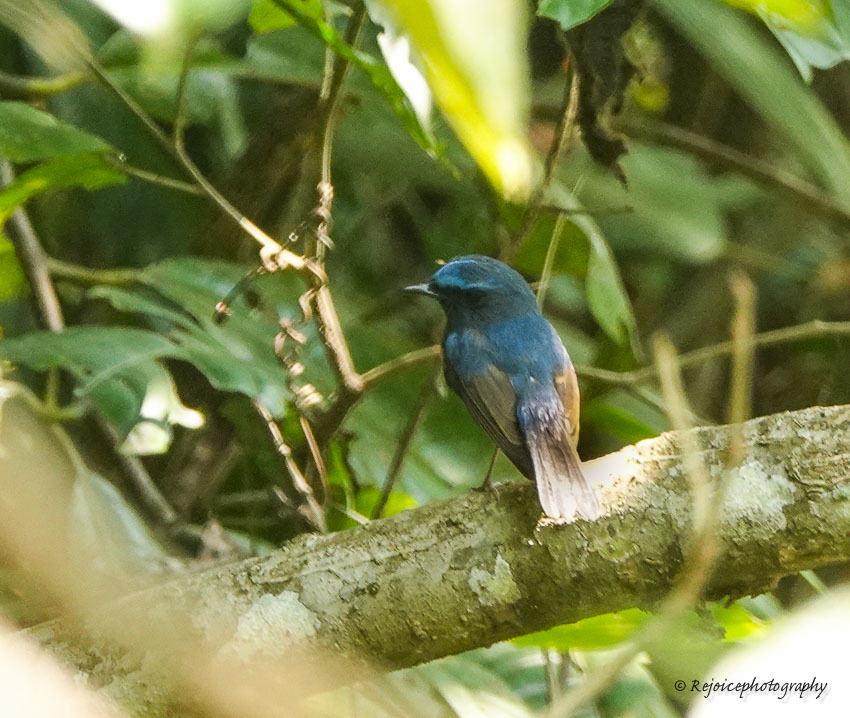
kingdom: Animalia
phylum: Chordata
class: Aves
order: Passeriformes
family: Muscicapidae
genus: Ficedula
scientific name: Ficedula superciliaris
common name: Ultramarine flycatcher
